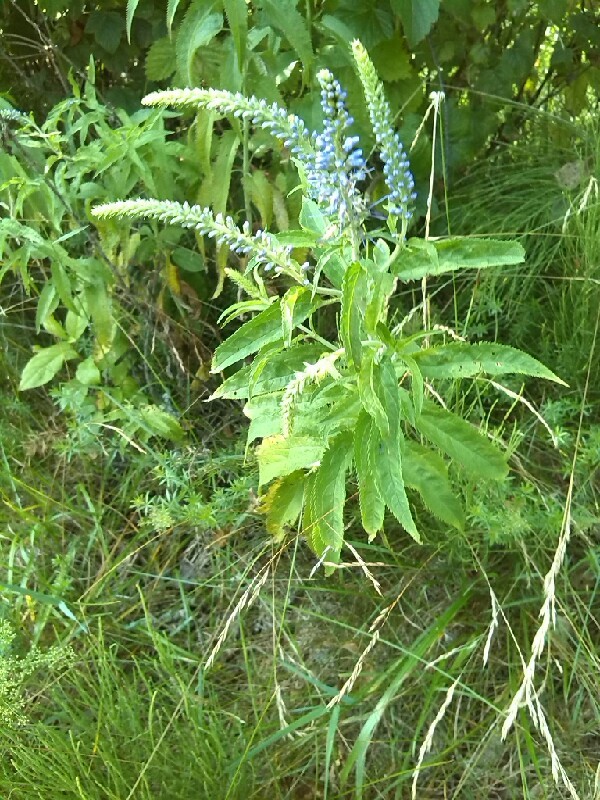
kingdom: Plantae
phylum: Tracheophyta
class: Magnoliopsida
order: Lamiales
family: Plantaginaceae
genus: Veronica
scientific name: Veronica longifolia
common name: Garden speedwell
